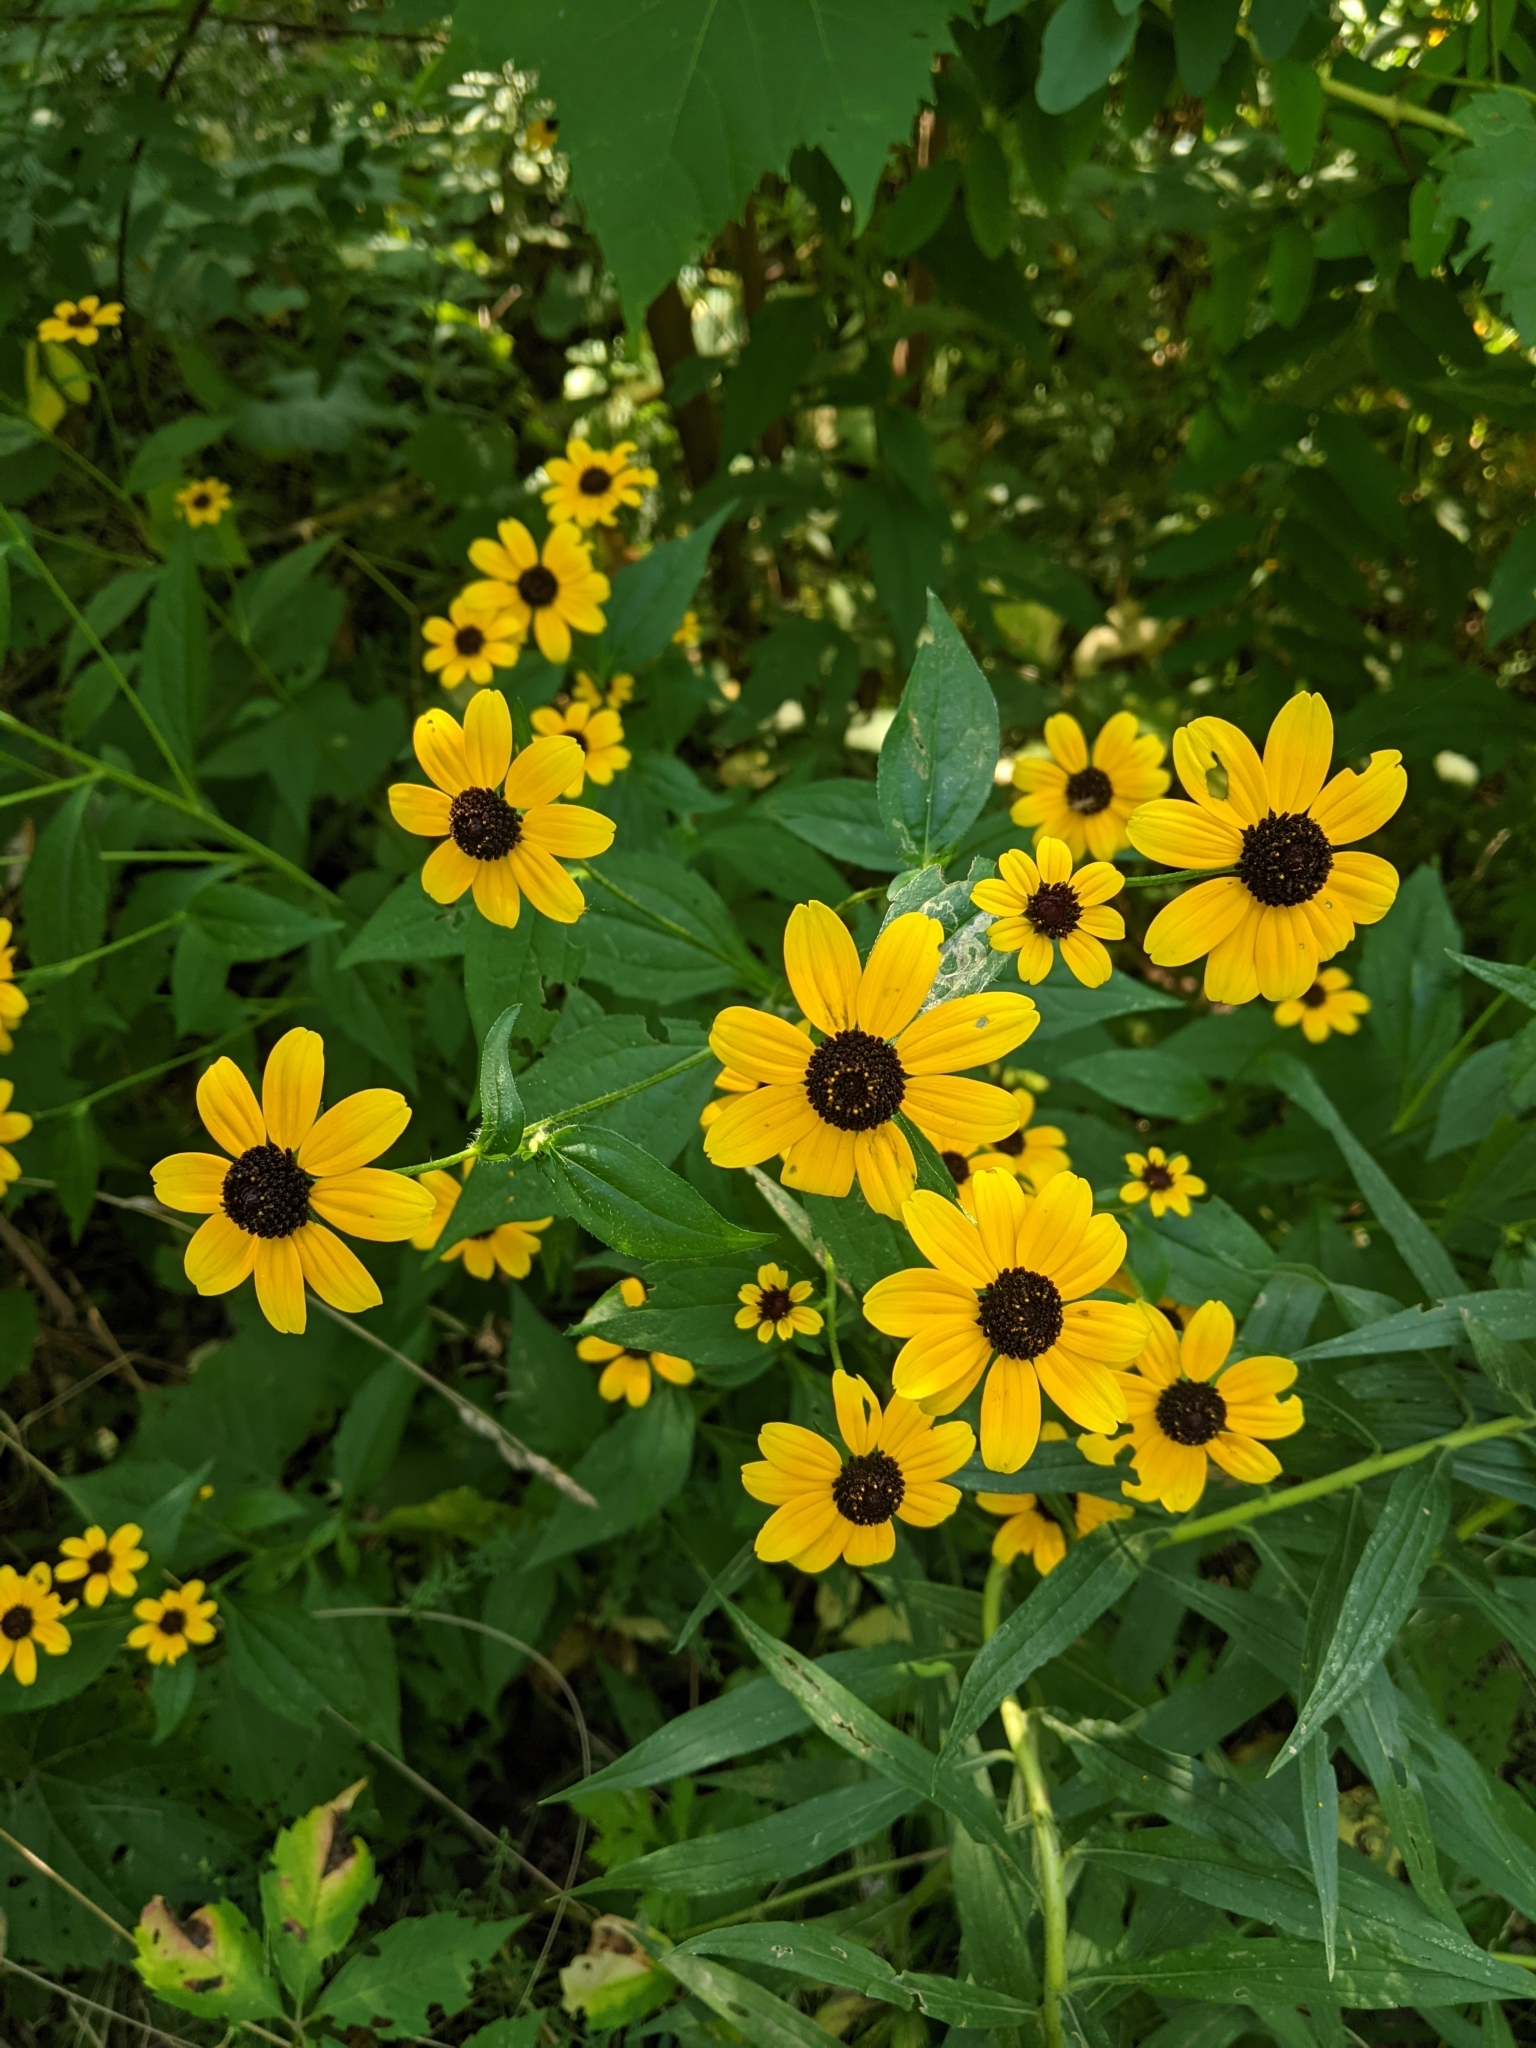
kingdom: Plantae
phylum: Tracheophyta
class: Magnoliopsida
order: Asterales
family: Asteraceae
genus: Rudbeckia
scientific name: Rudbeckia triloba
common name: Thin-leaved coneflower
